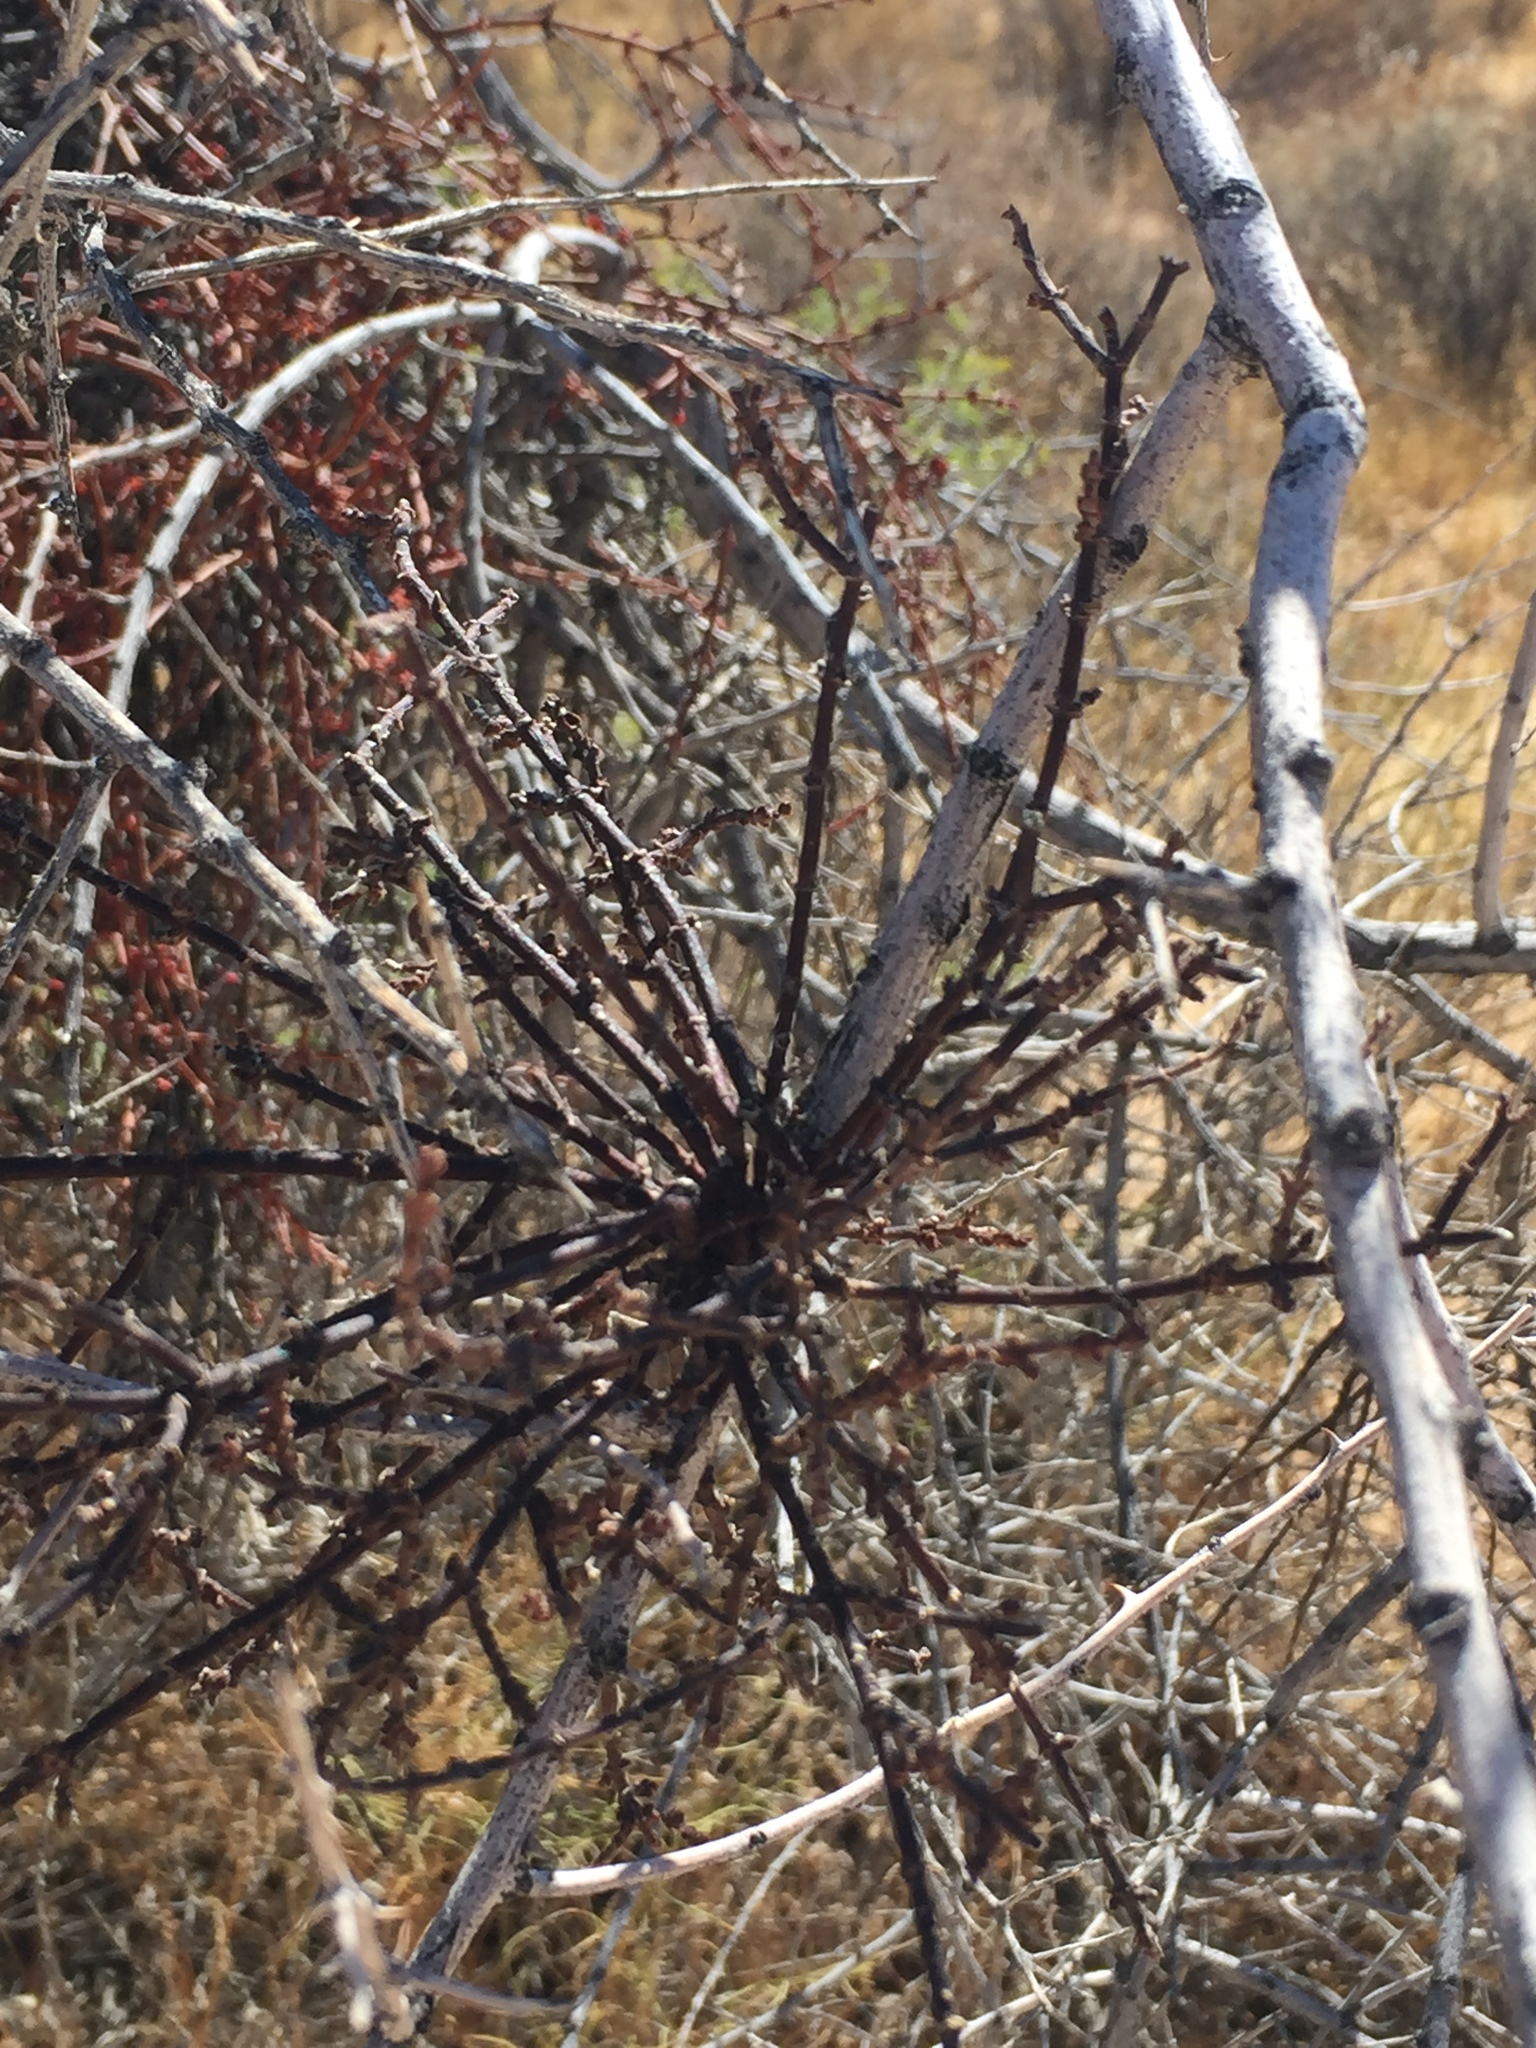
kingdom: Plantae
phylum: Tracheophyta
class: Magnoliopsida
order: Santalales
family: Viscaceae
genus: Phoradendron
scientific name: Phoradendron californicum
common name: Acacia mistletoe
